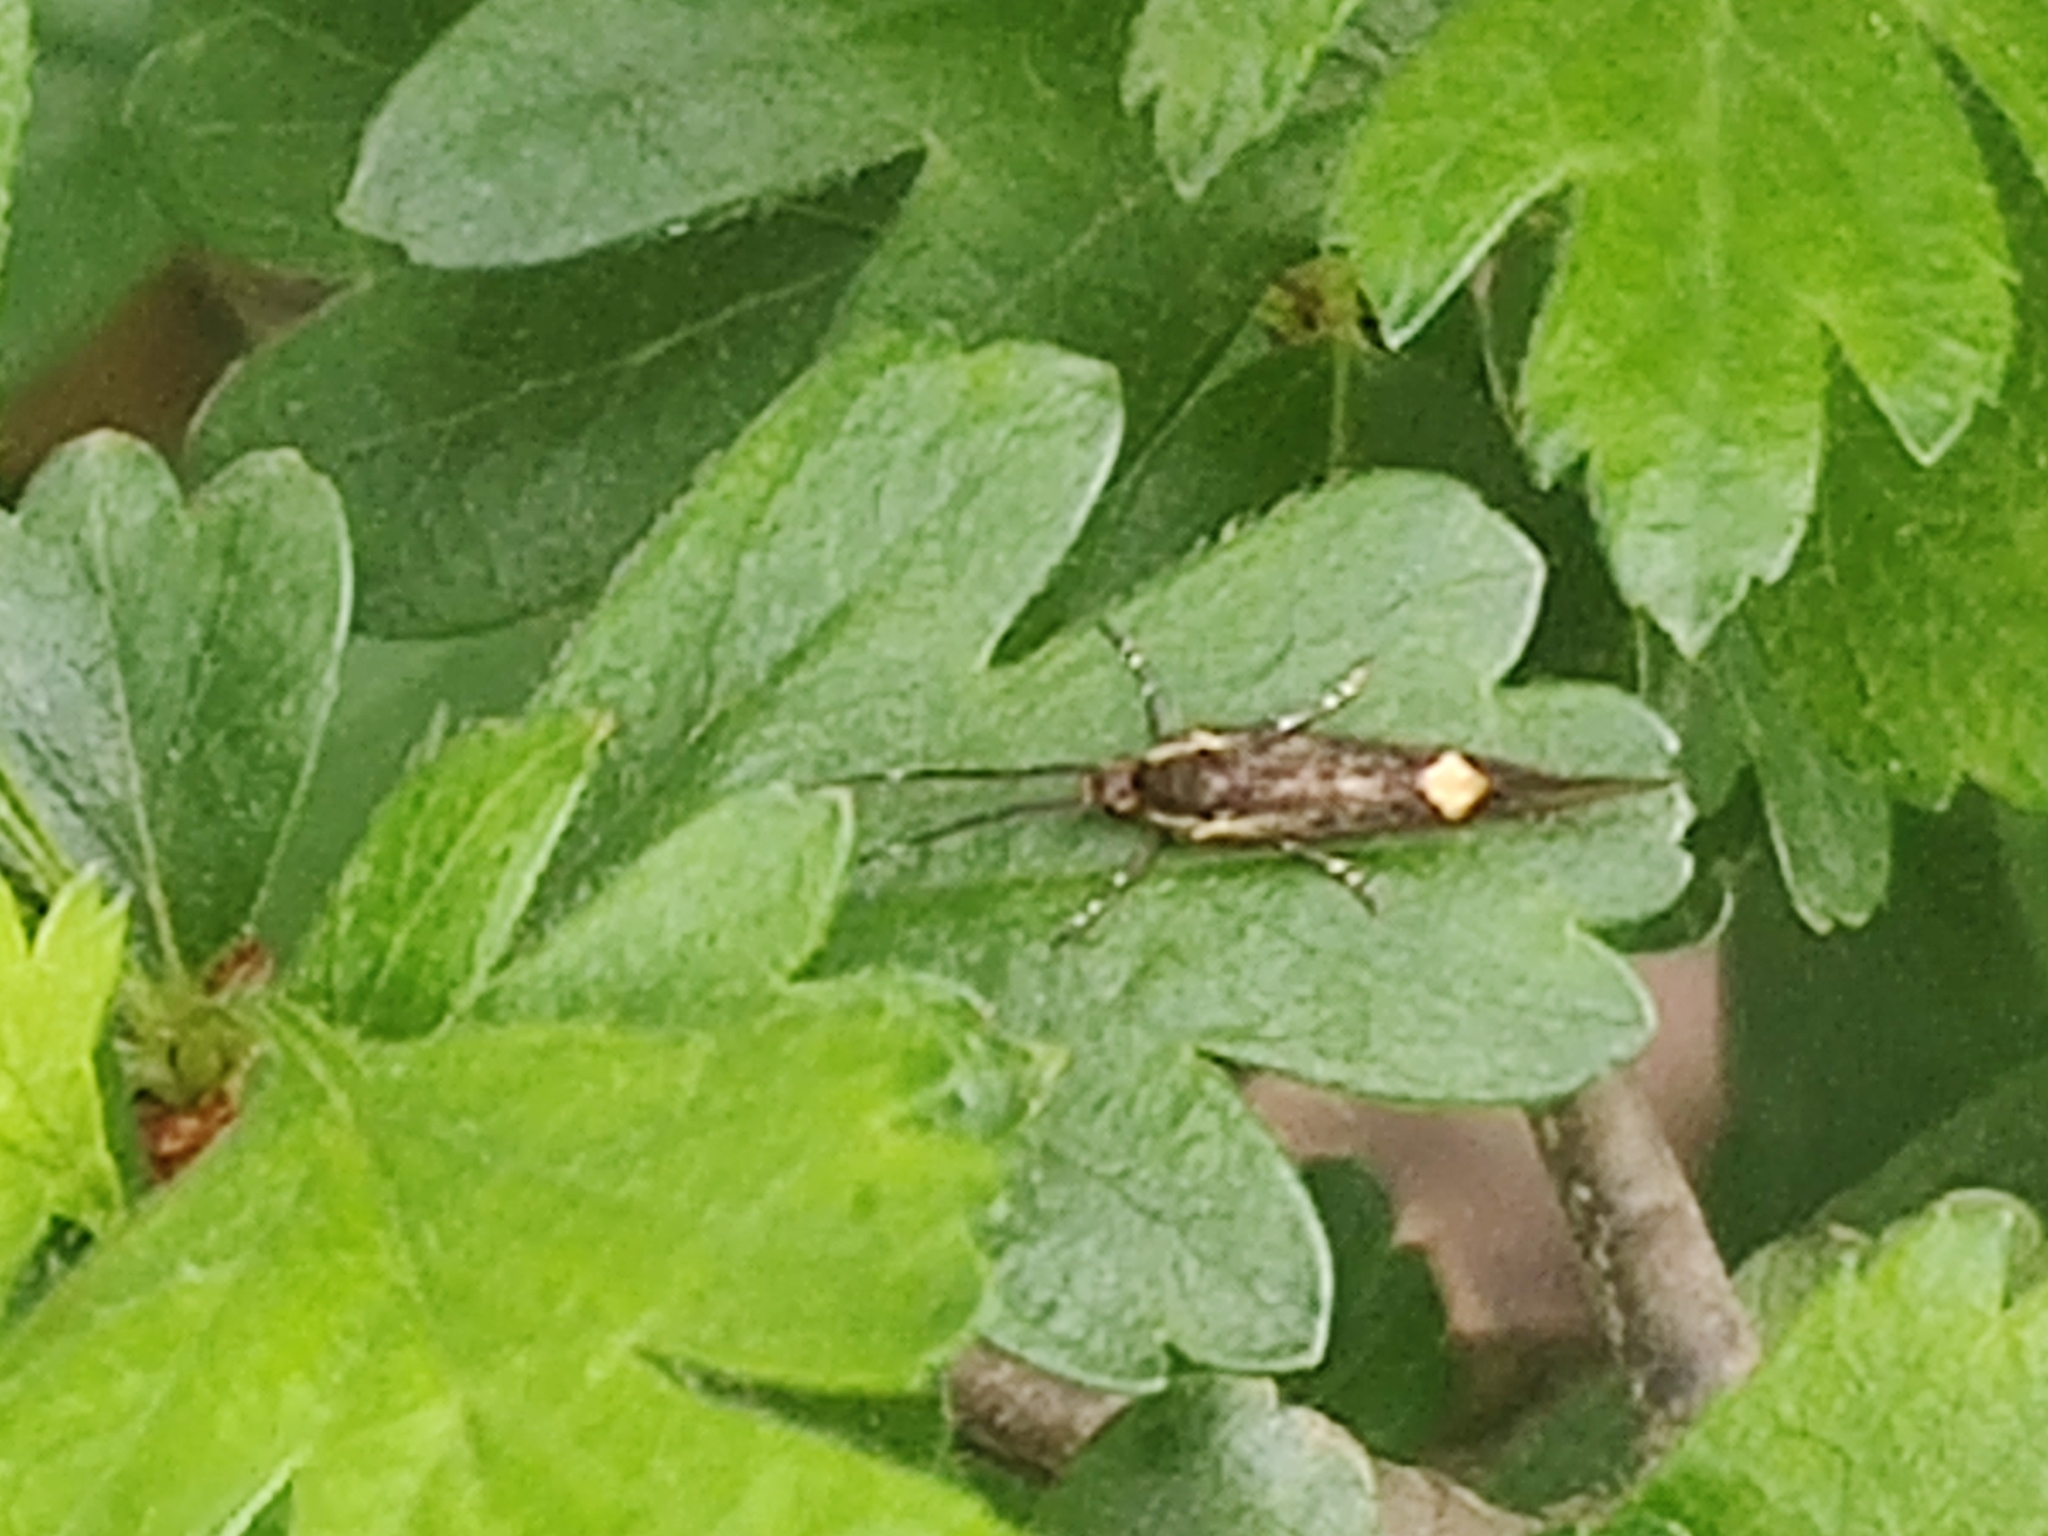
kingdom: Animalia
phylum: Arthropoda
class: Insecta
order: Lepidoptera
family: Oecophoridae
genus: Dafa
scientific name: Dafa Esperia sulphurella
